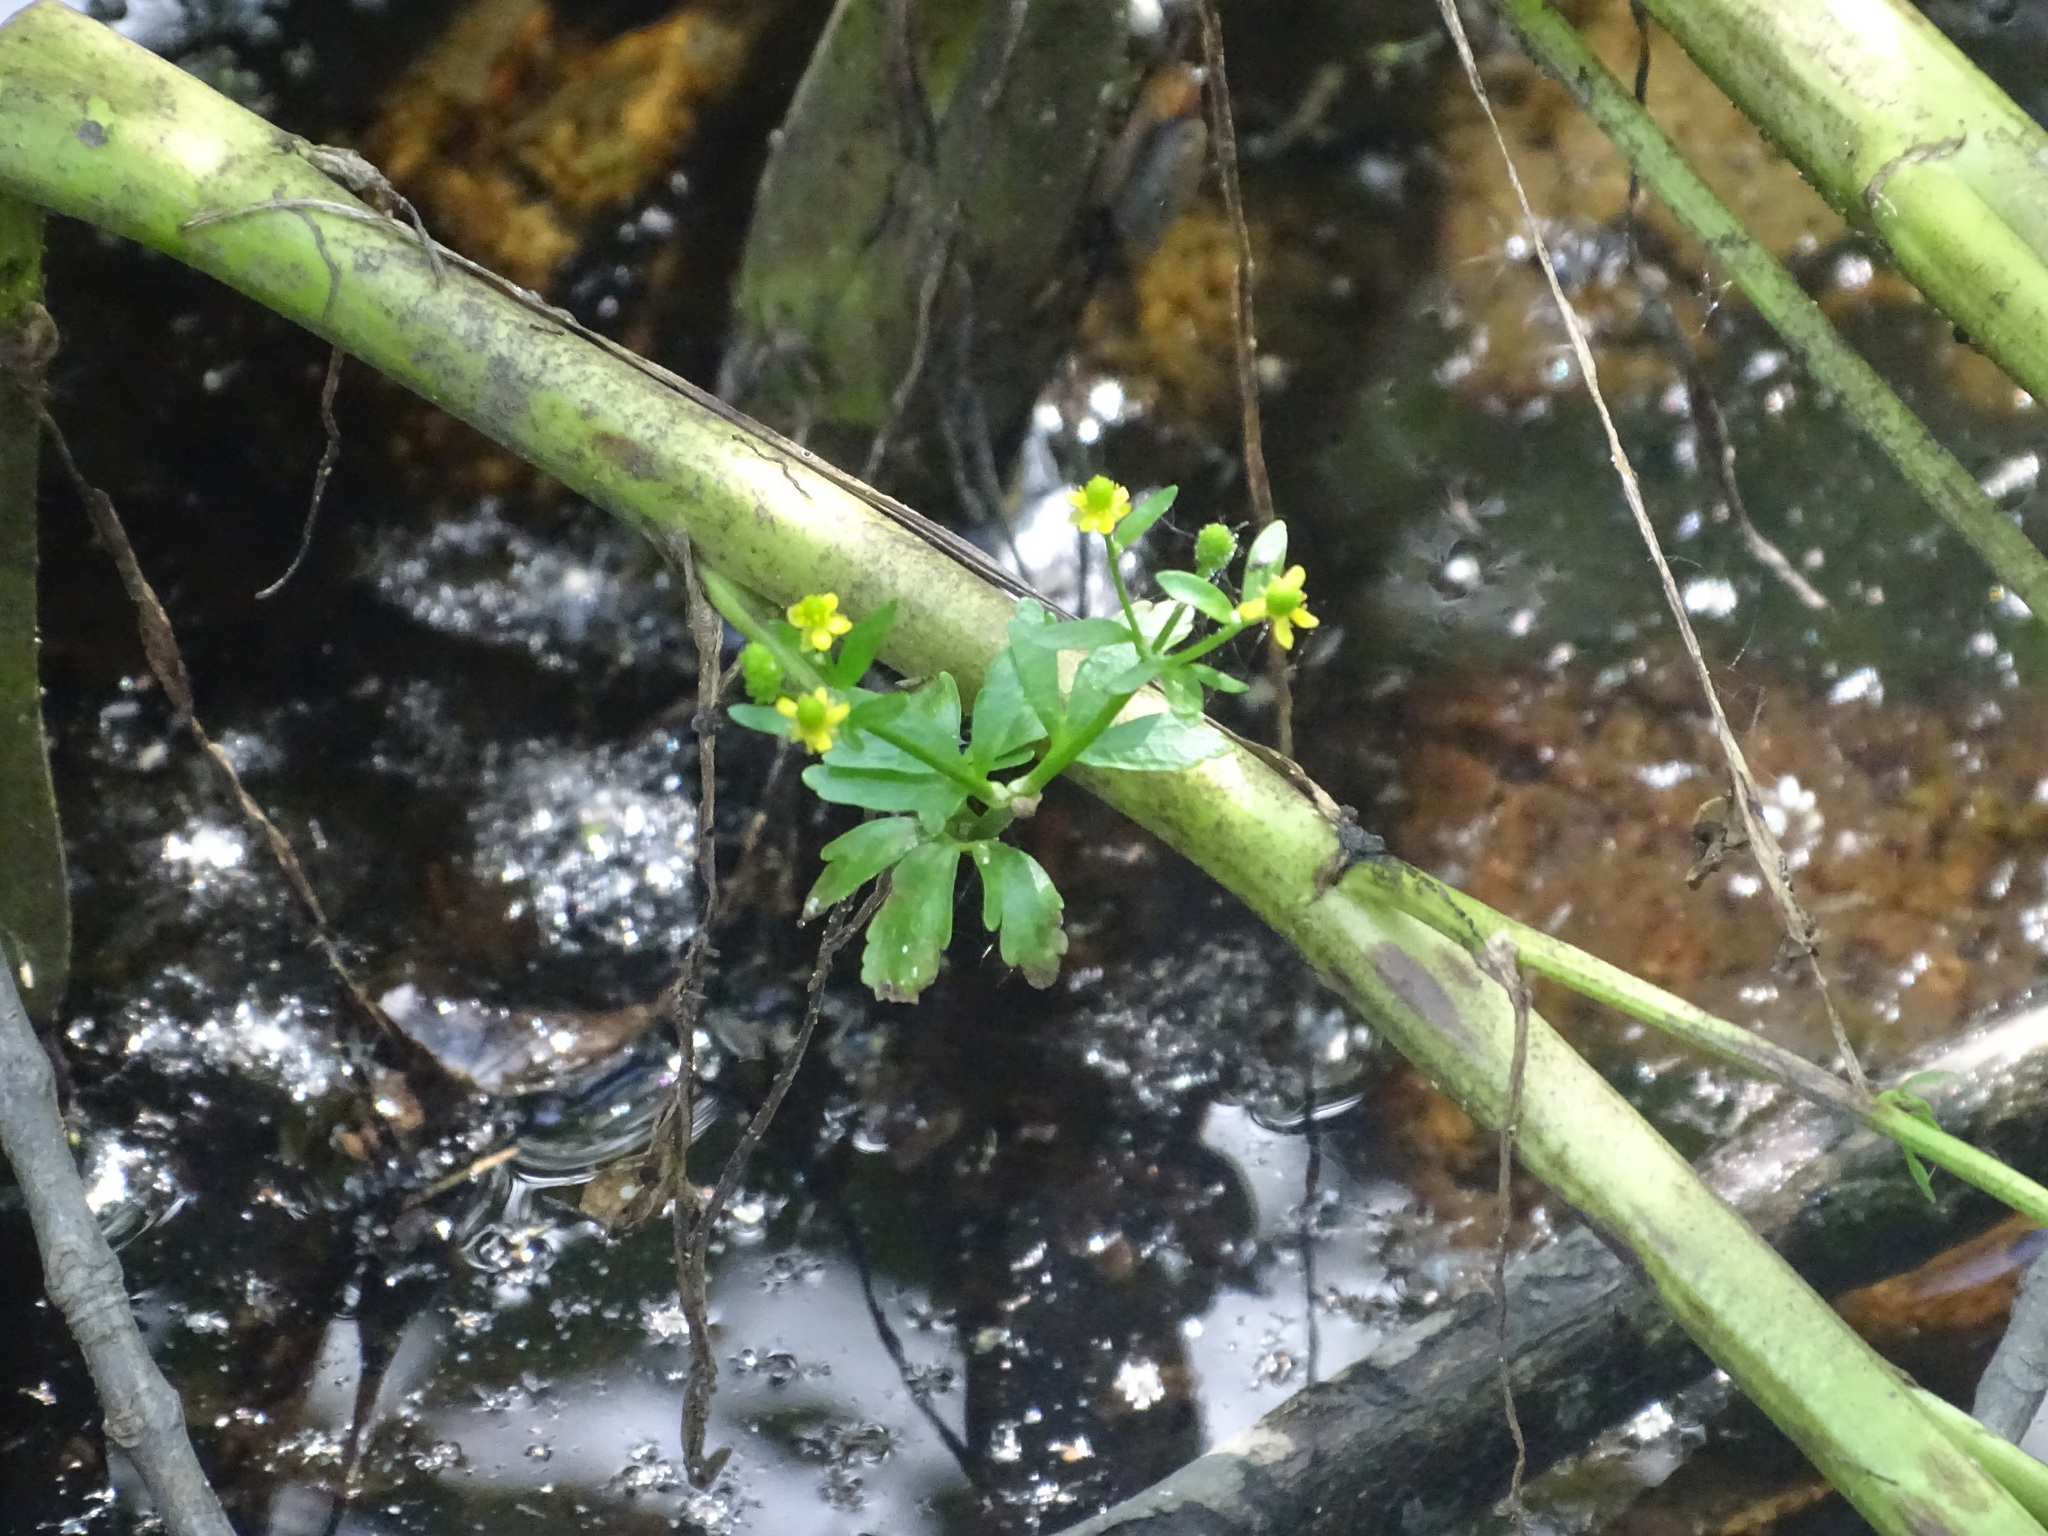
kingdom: Plantae
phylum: Tracheophyta
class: Magnoliopsida
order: Ranunculales
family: Ranunculaceae
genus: Ranunculus
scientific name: Ranunculus sceleratus
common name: Celery-leaved buttercup
